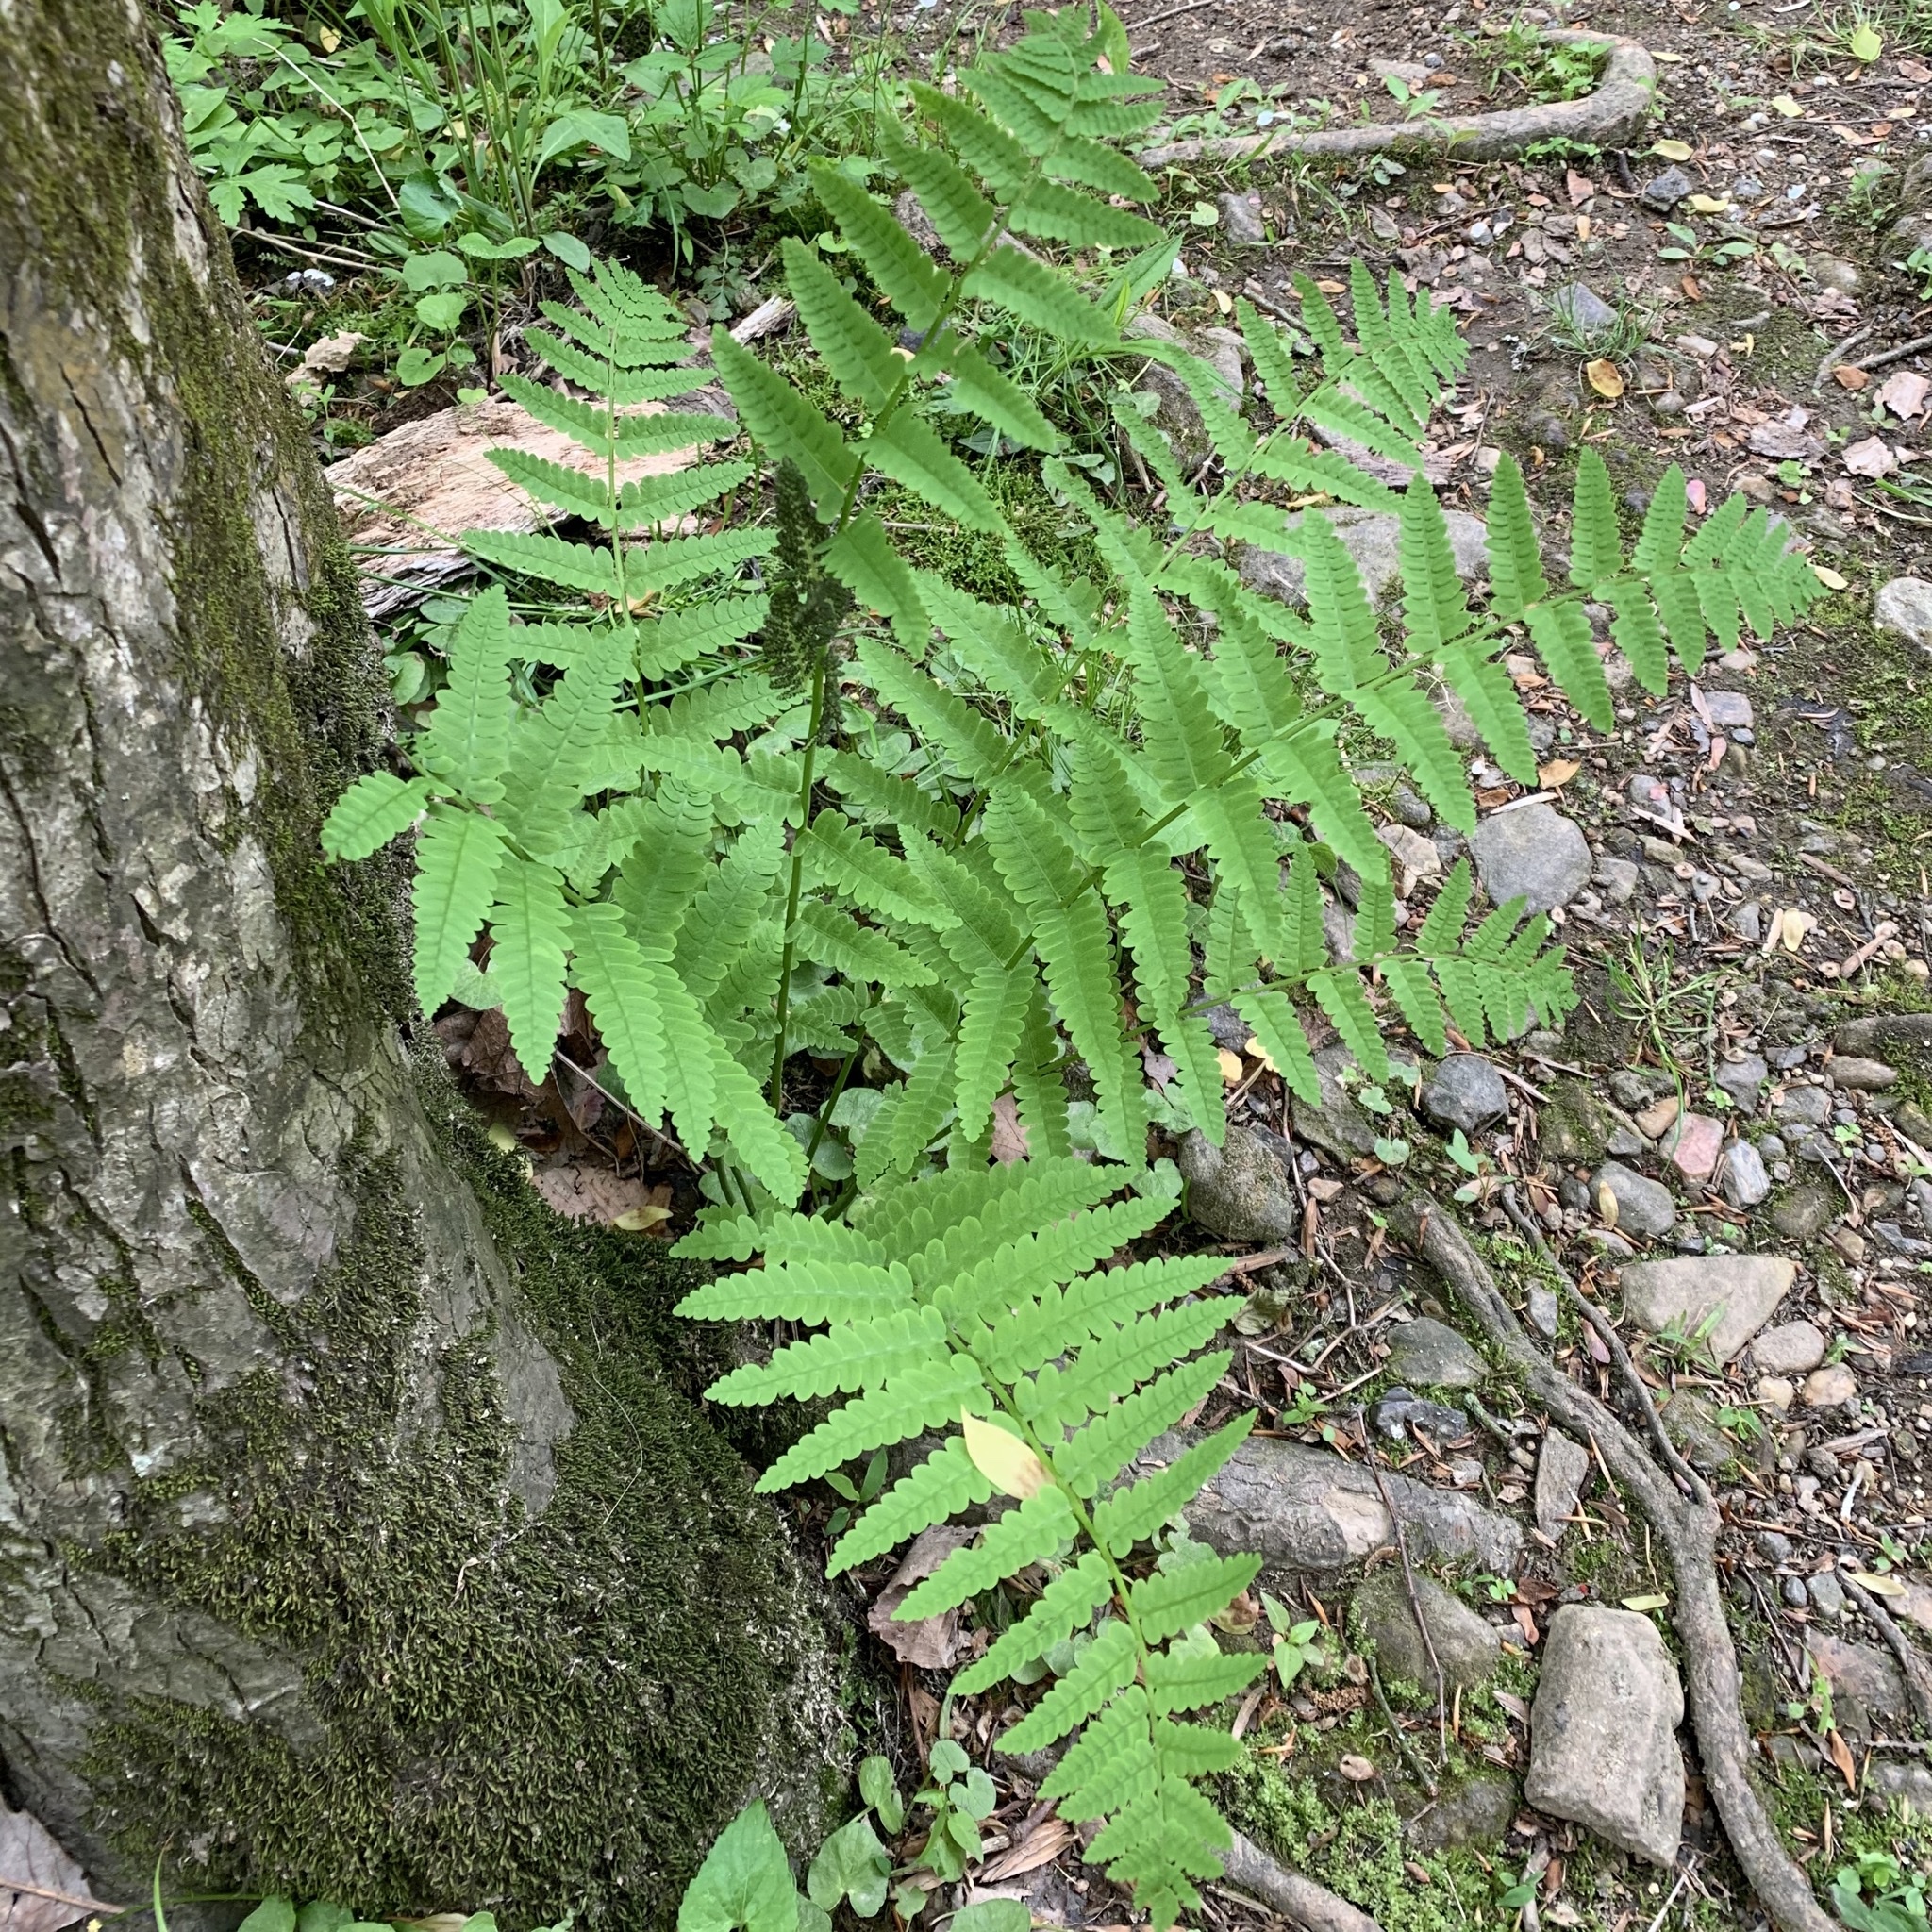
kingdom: Plantae
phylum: Tracheophyta
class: Polypodiopsida
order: Osmundales
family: Osmundaceae
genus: Claytosmunda
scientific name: Claytosmunda claytoniana
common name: Clayton's fern
